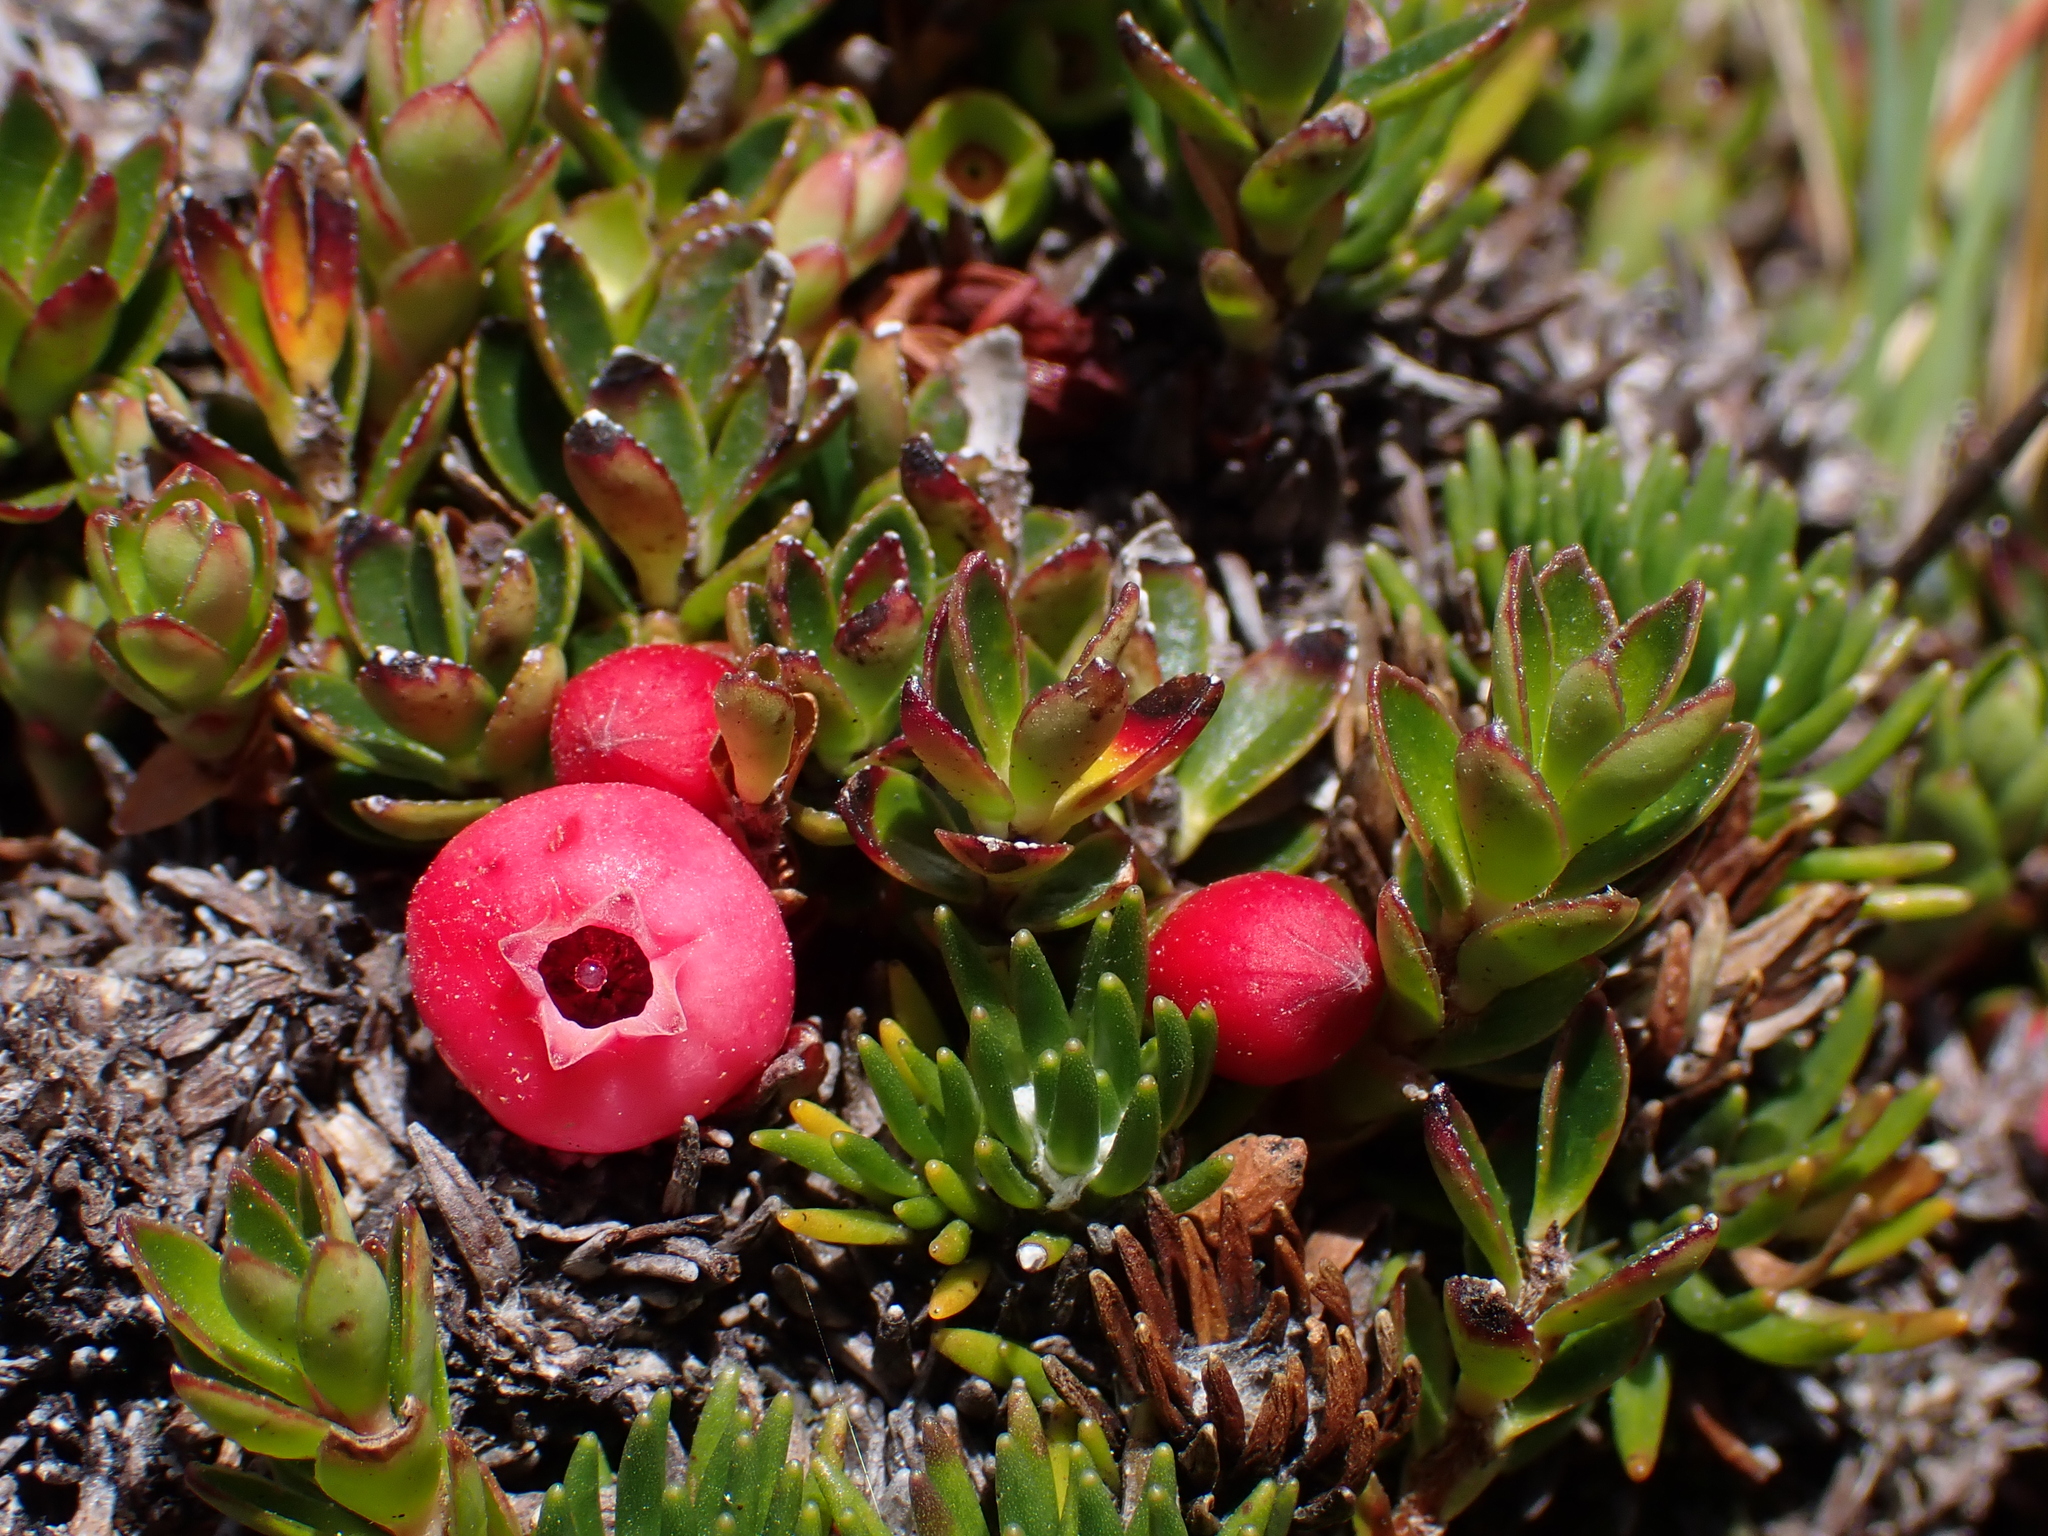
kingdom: Plantae
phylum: Tracheophyta
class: Magnoliopsida
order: Ericales
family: Ericaceae
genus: Disterigma
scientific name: Disterigma empetrifolium
